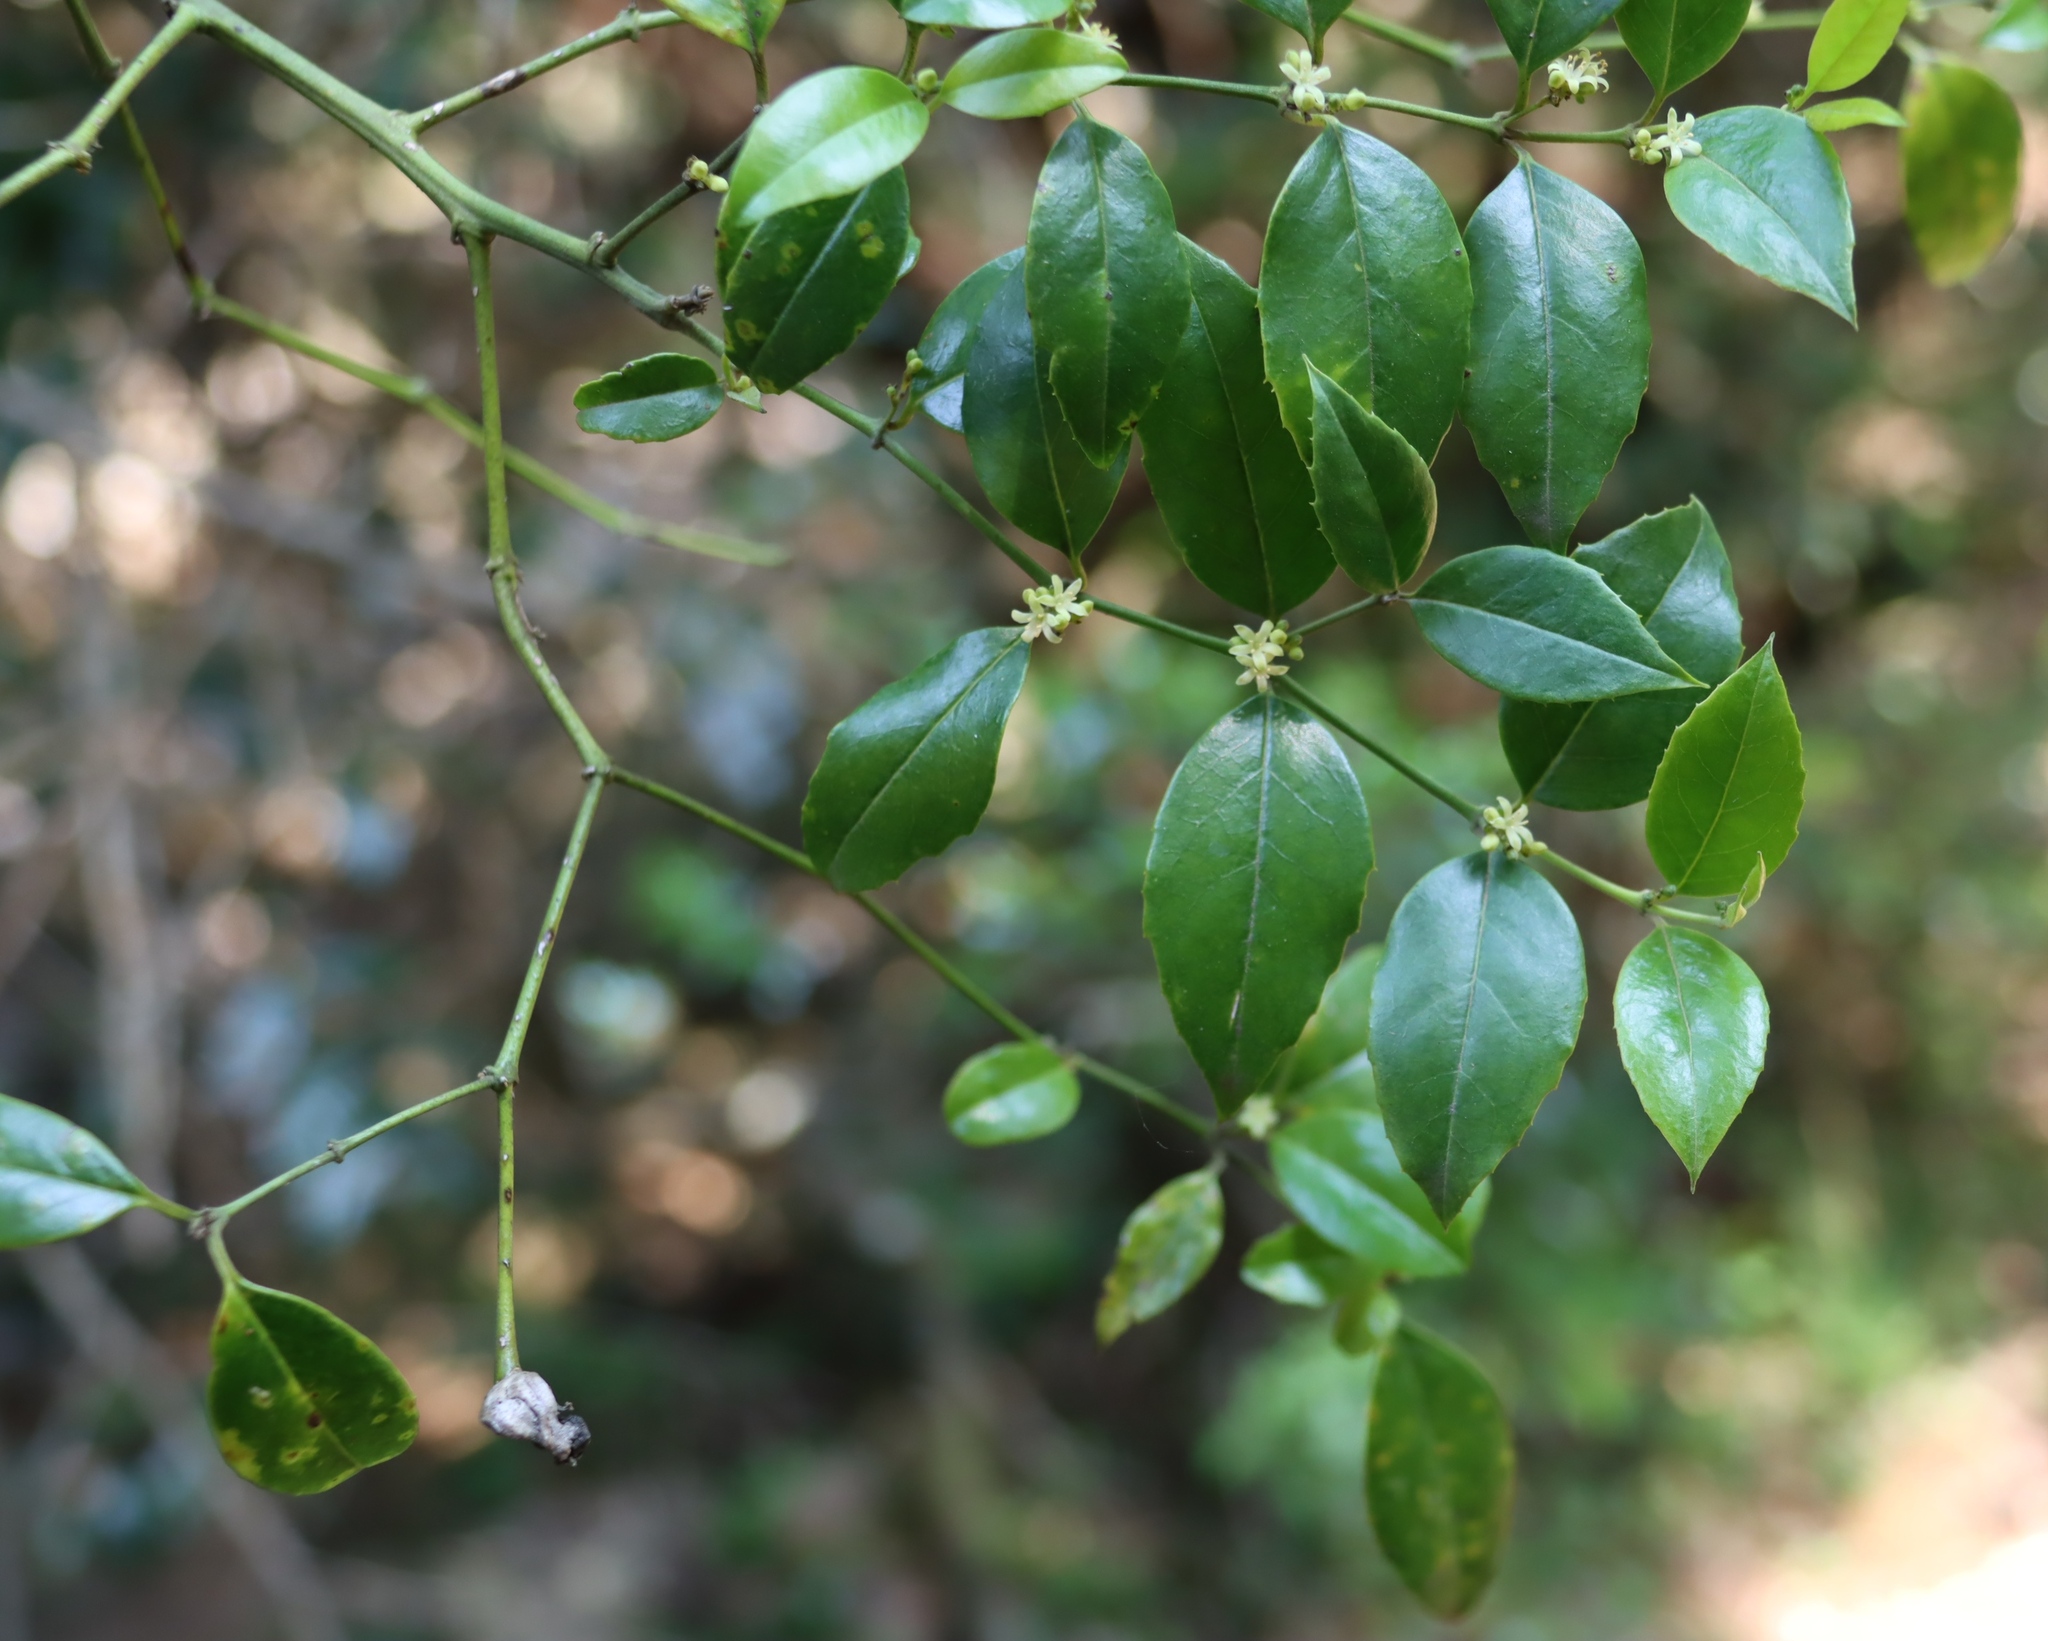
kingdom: Plantae
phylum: Tracheophyta
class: Magnoliopsida
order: Icacinales
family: Icacinaceae
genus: Cassinopsis
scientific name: Cassinopsis ilicifolia
